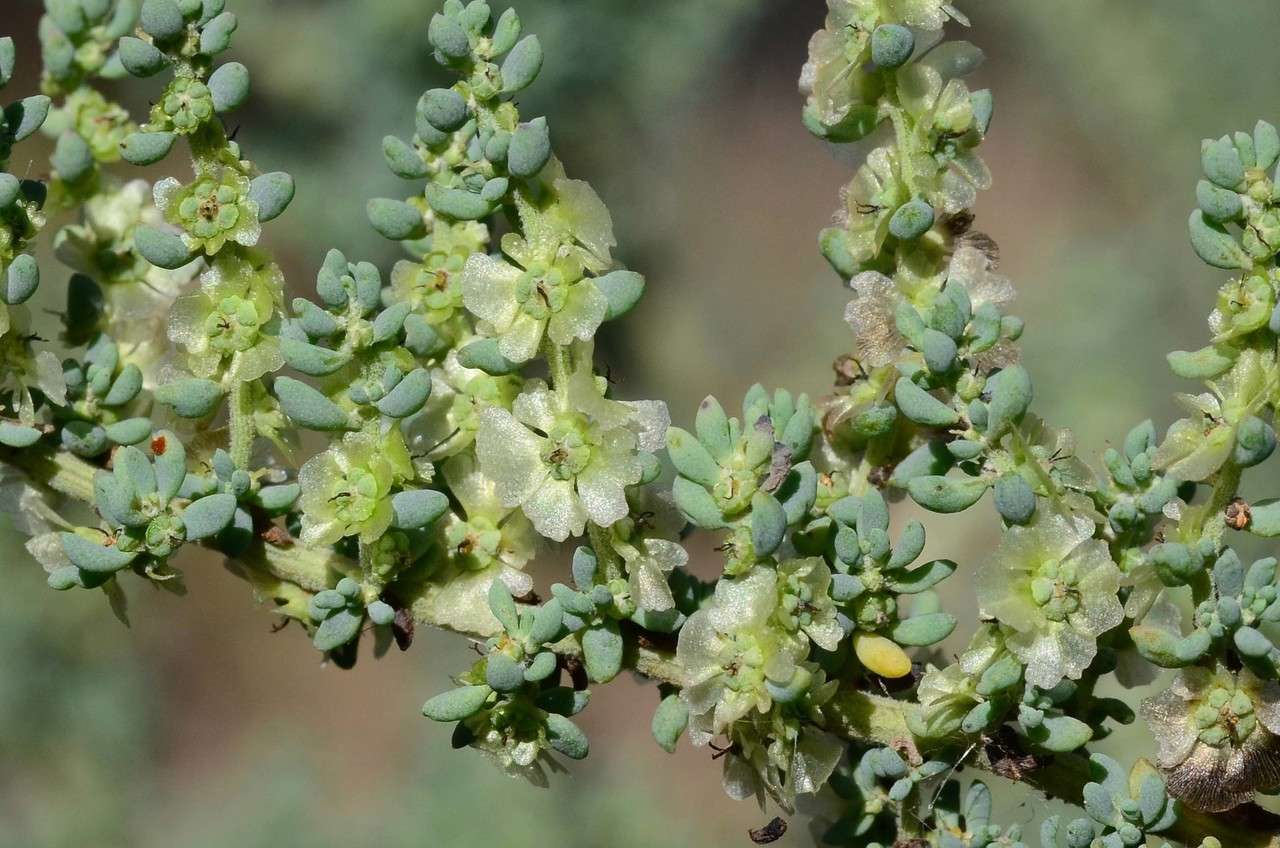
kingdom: Plantae
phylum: Tracheophyta
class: Magnoliopsida
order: Caryophyllales
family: Amaranthaceae
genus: Maireana
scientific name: Maireana brevifolia
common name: Eastern cottonbush
